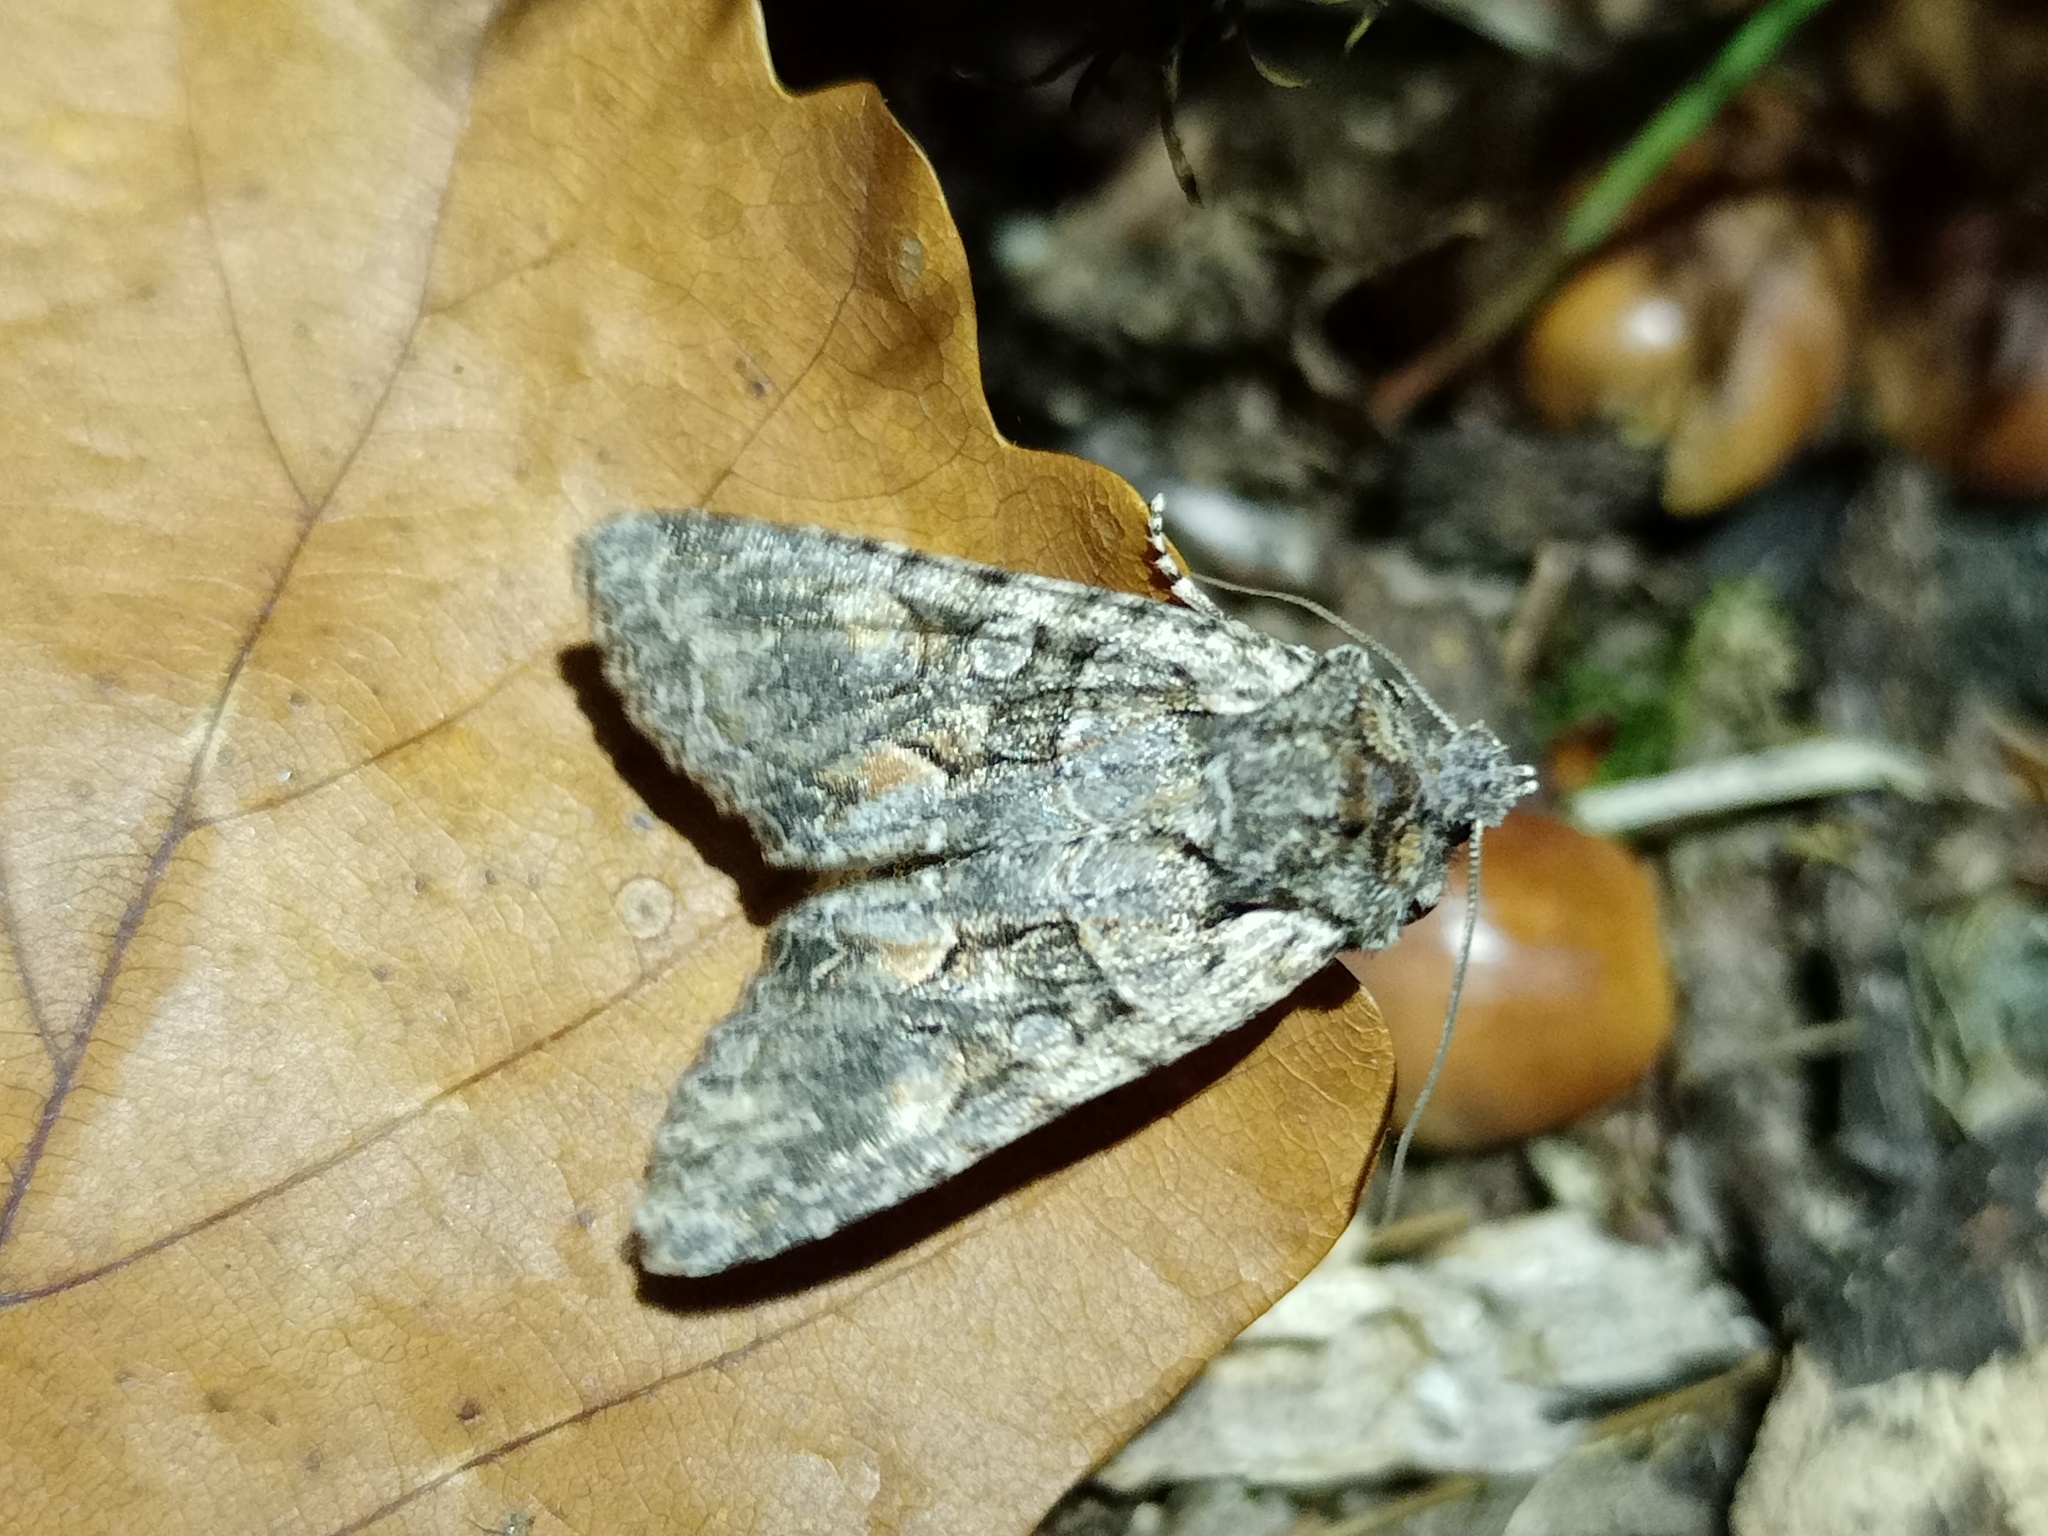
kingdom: Animalia
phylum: Arthropoda
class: Insecta
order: Lepidoptera
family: Noctuidae
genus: Dichonia
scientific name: Dichonia convergens
